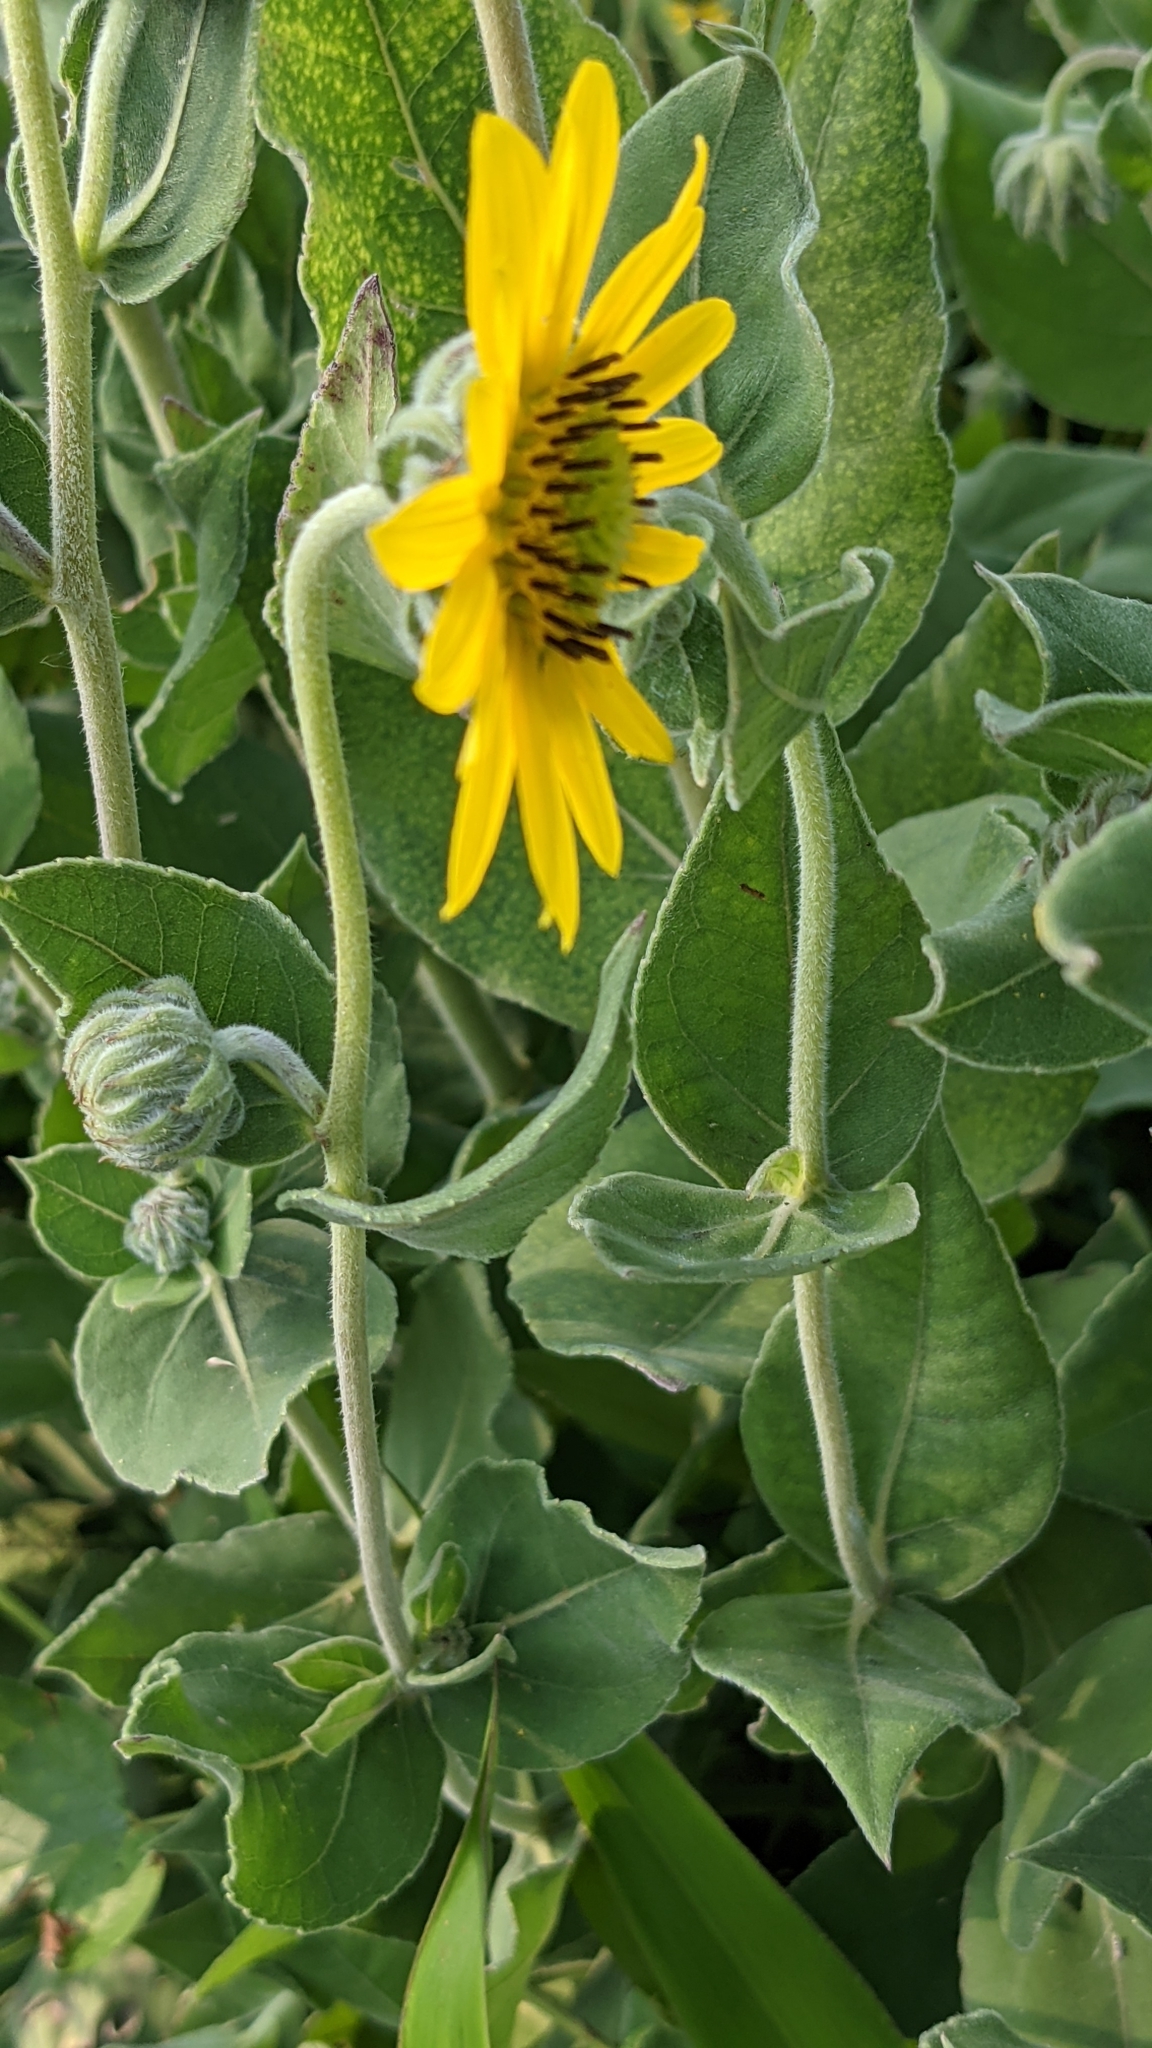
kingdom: Plantae
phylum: Tracheophyta
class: Magnoliopsida
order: Asterales
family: Asteraceae
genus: Helianthus
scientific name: Helianthus mollis
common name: Ashy sunflower
